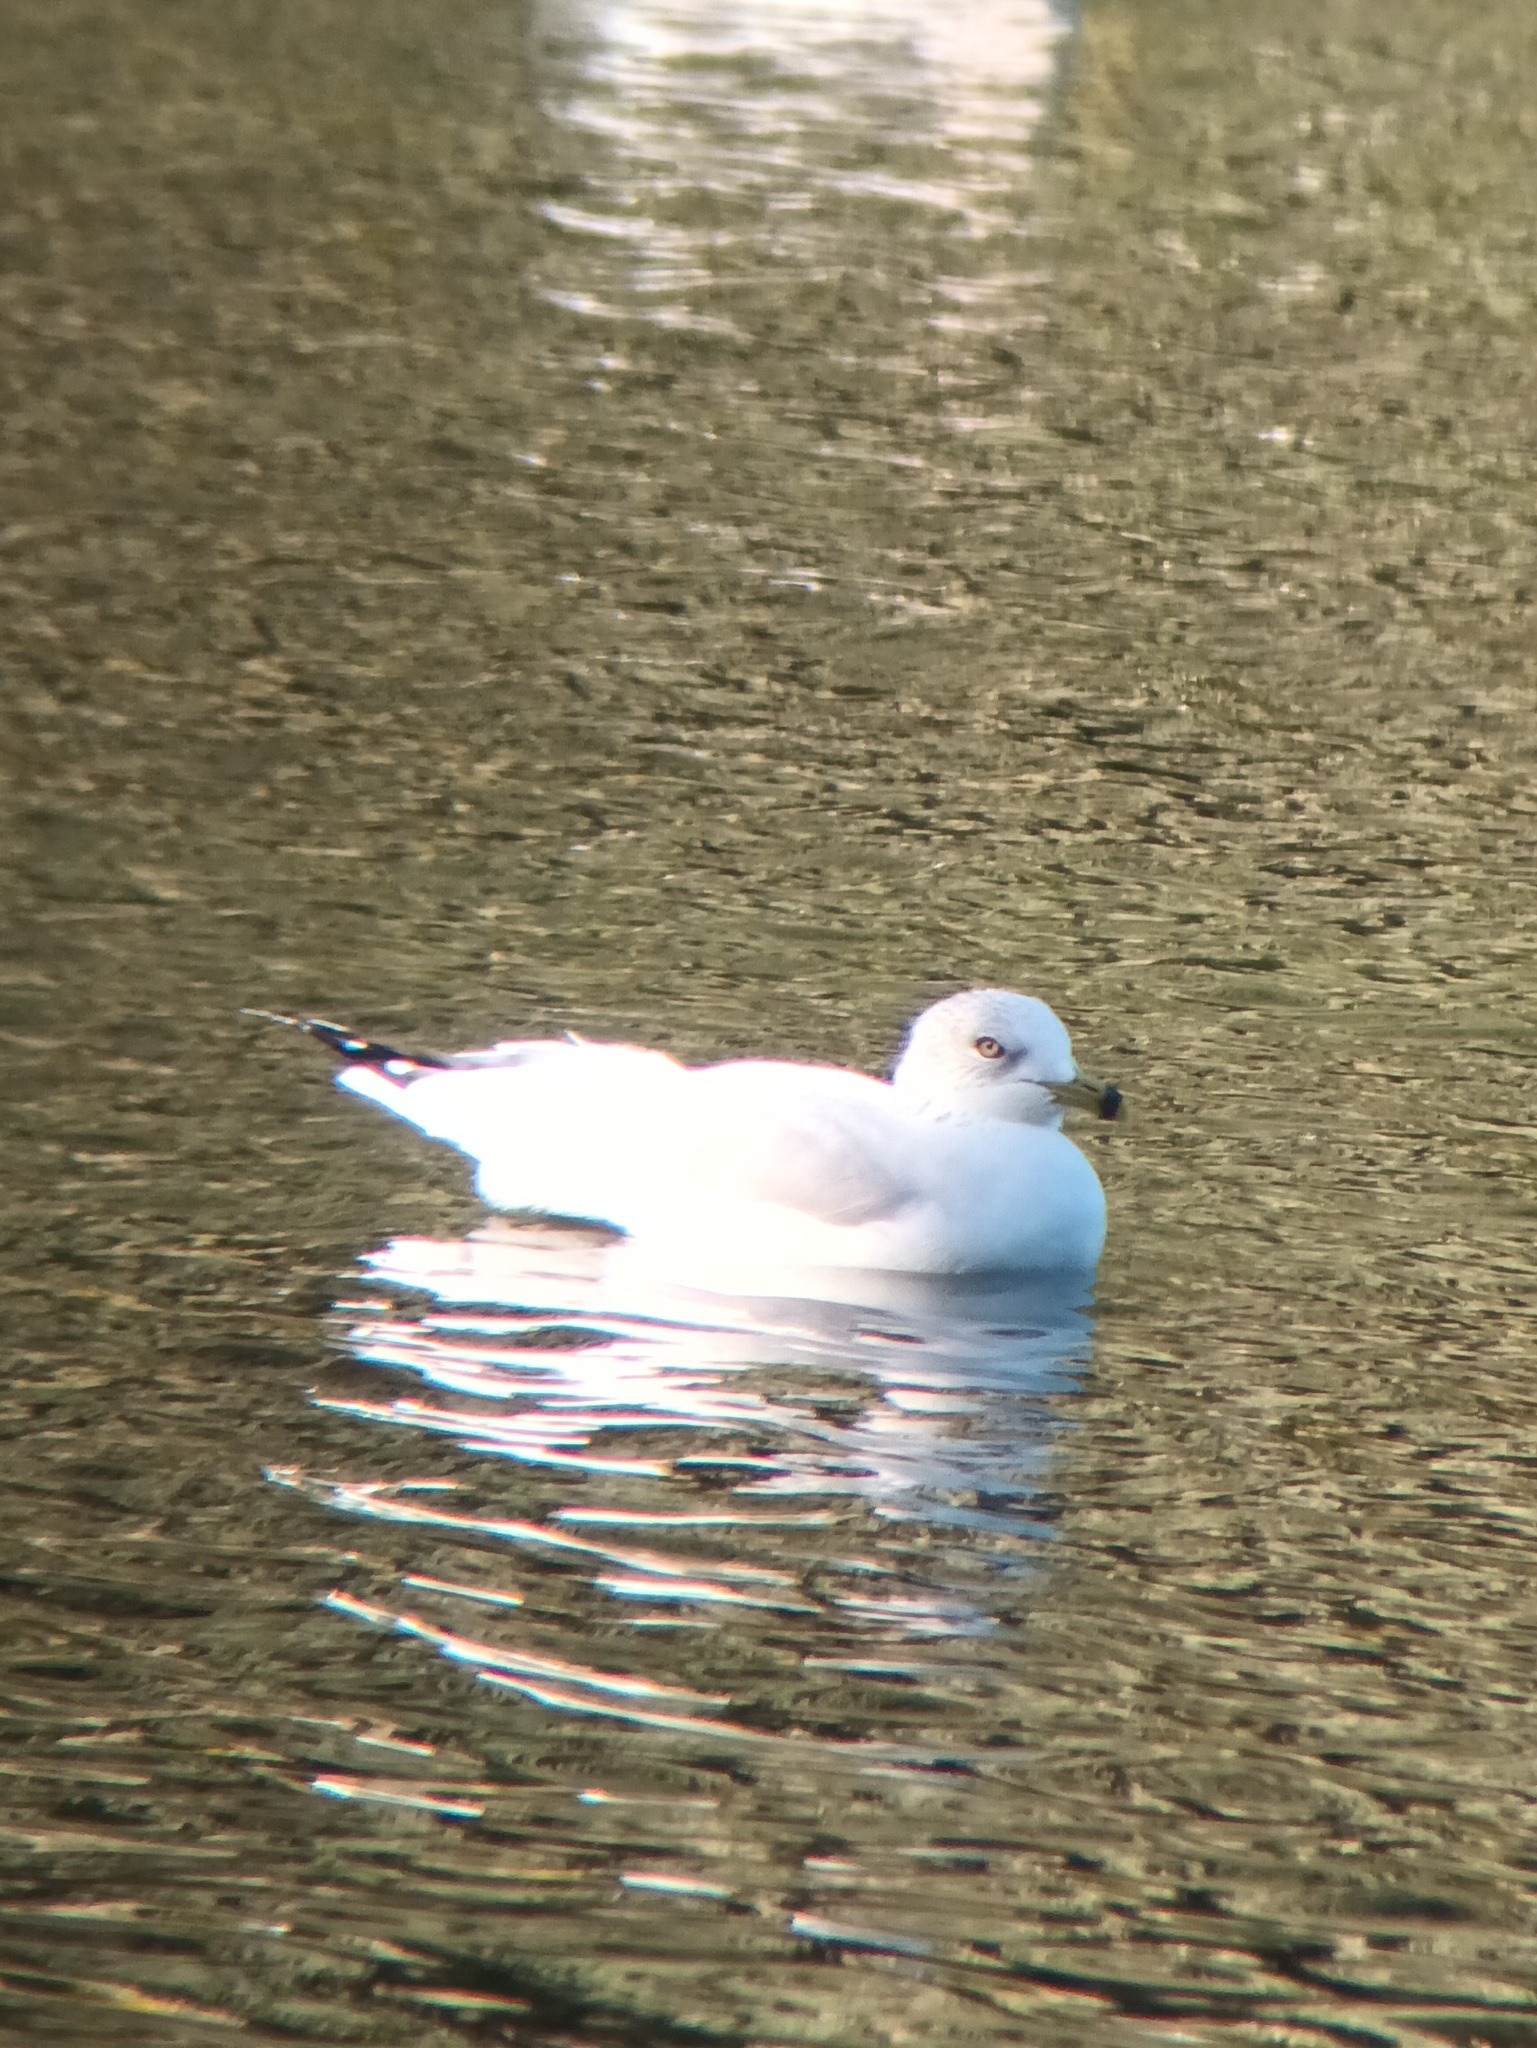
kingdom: Animalia
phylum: Chordata
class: Aves
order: Charadriiformes
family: Laridae
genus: Larus
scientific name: Larus delawarensis
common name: Ring-billed gull
